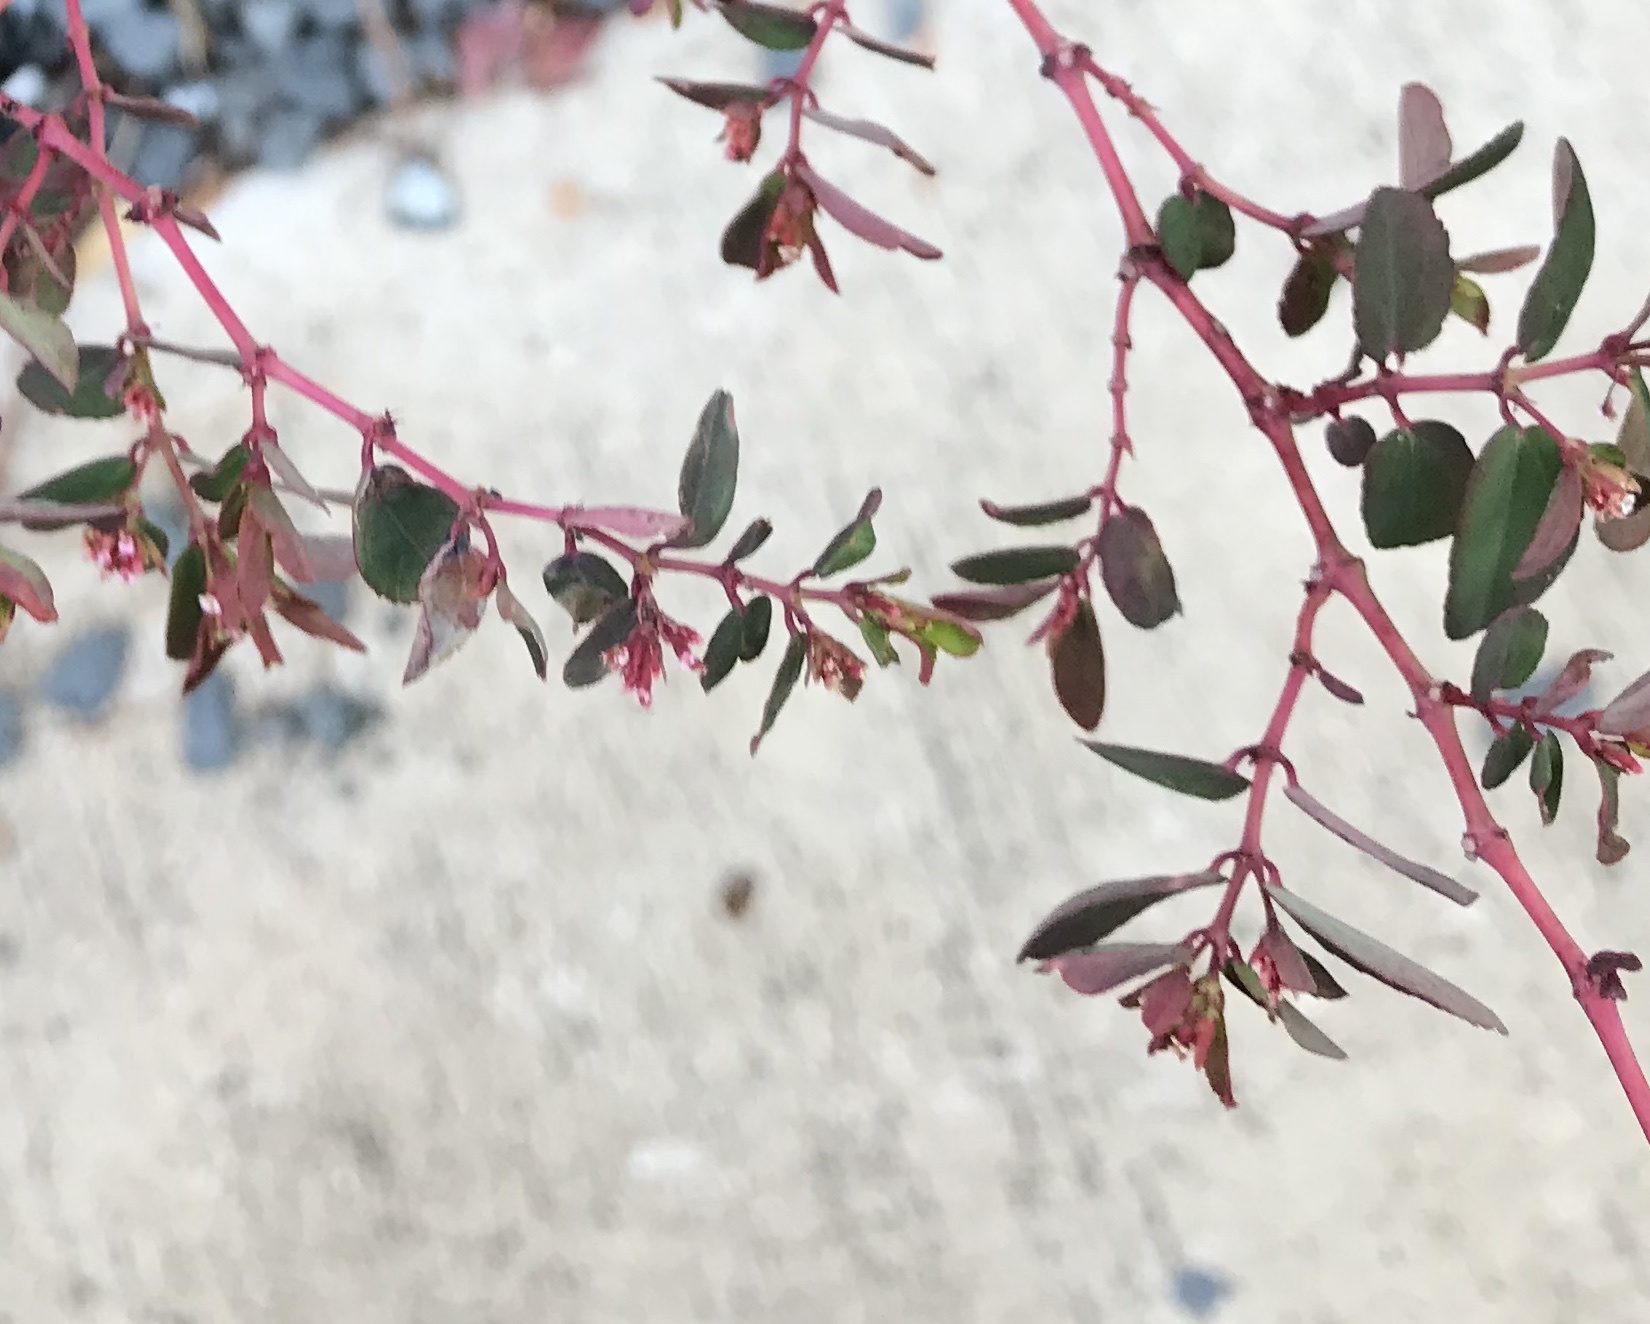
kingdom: Plantae
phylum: Tracheophyta
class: Magnoliopsida
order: Malpighiales
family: Euphorbiaceae
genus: Euphorbia
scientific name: Euphorbia hypericifolia
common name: Graceful sandmat
